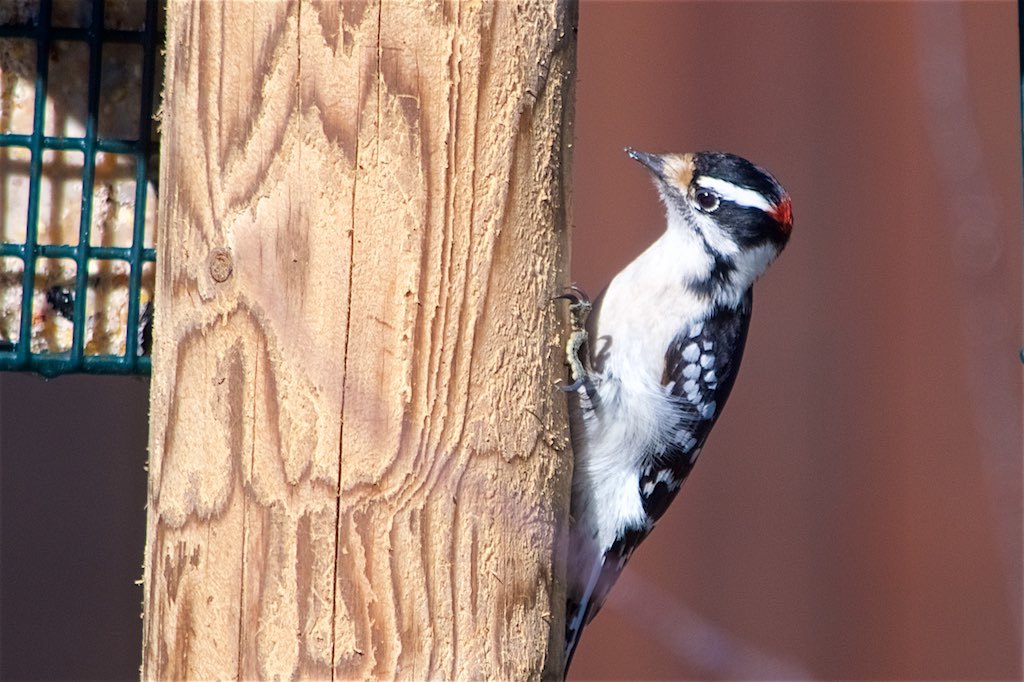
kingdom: Animalia
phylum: Chordata
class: Aves
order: Piciformes
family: Picidae
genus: Dryobates
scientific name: Dryobates pubescens
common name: Downy woodpecker
